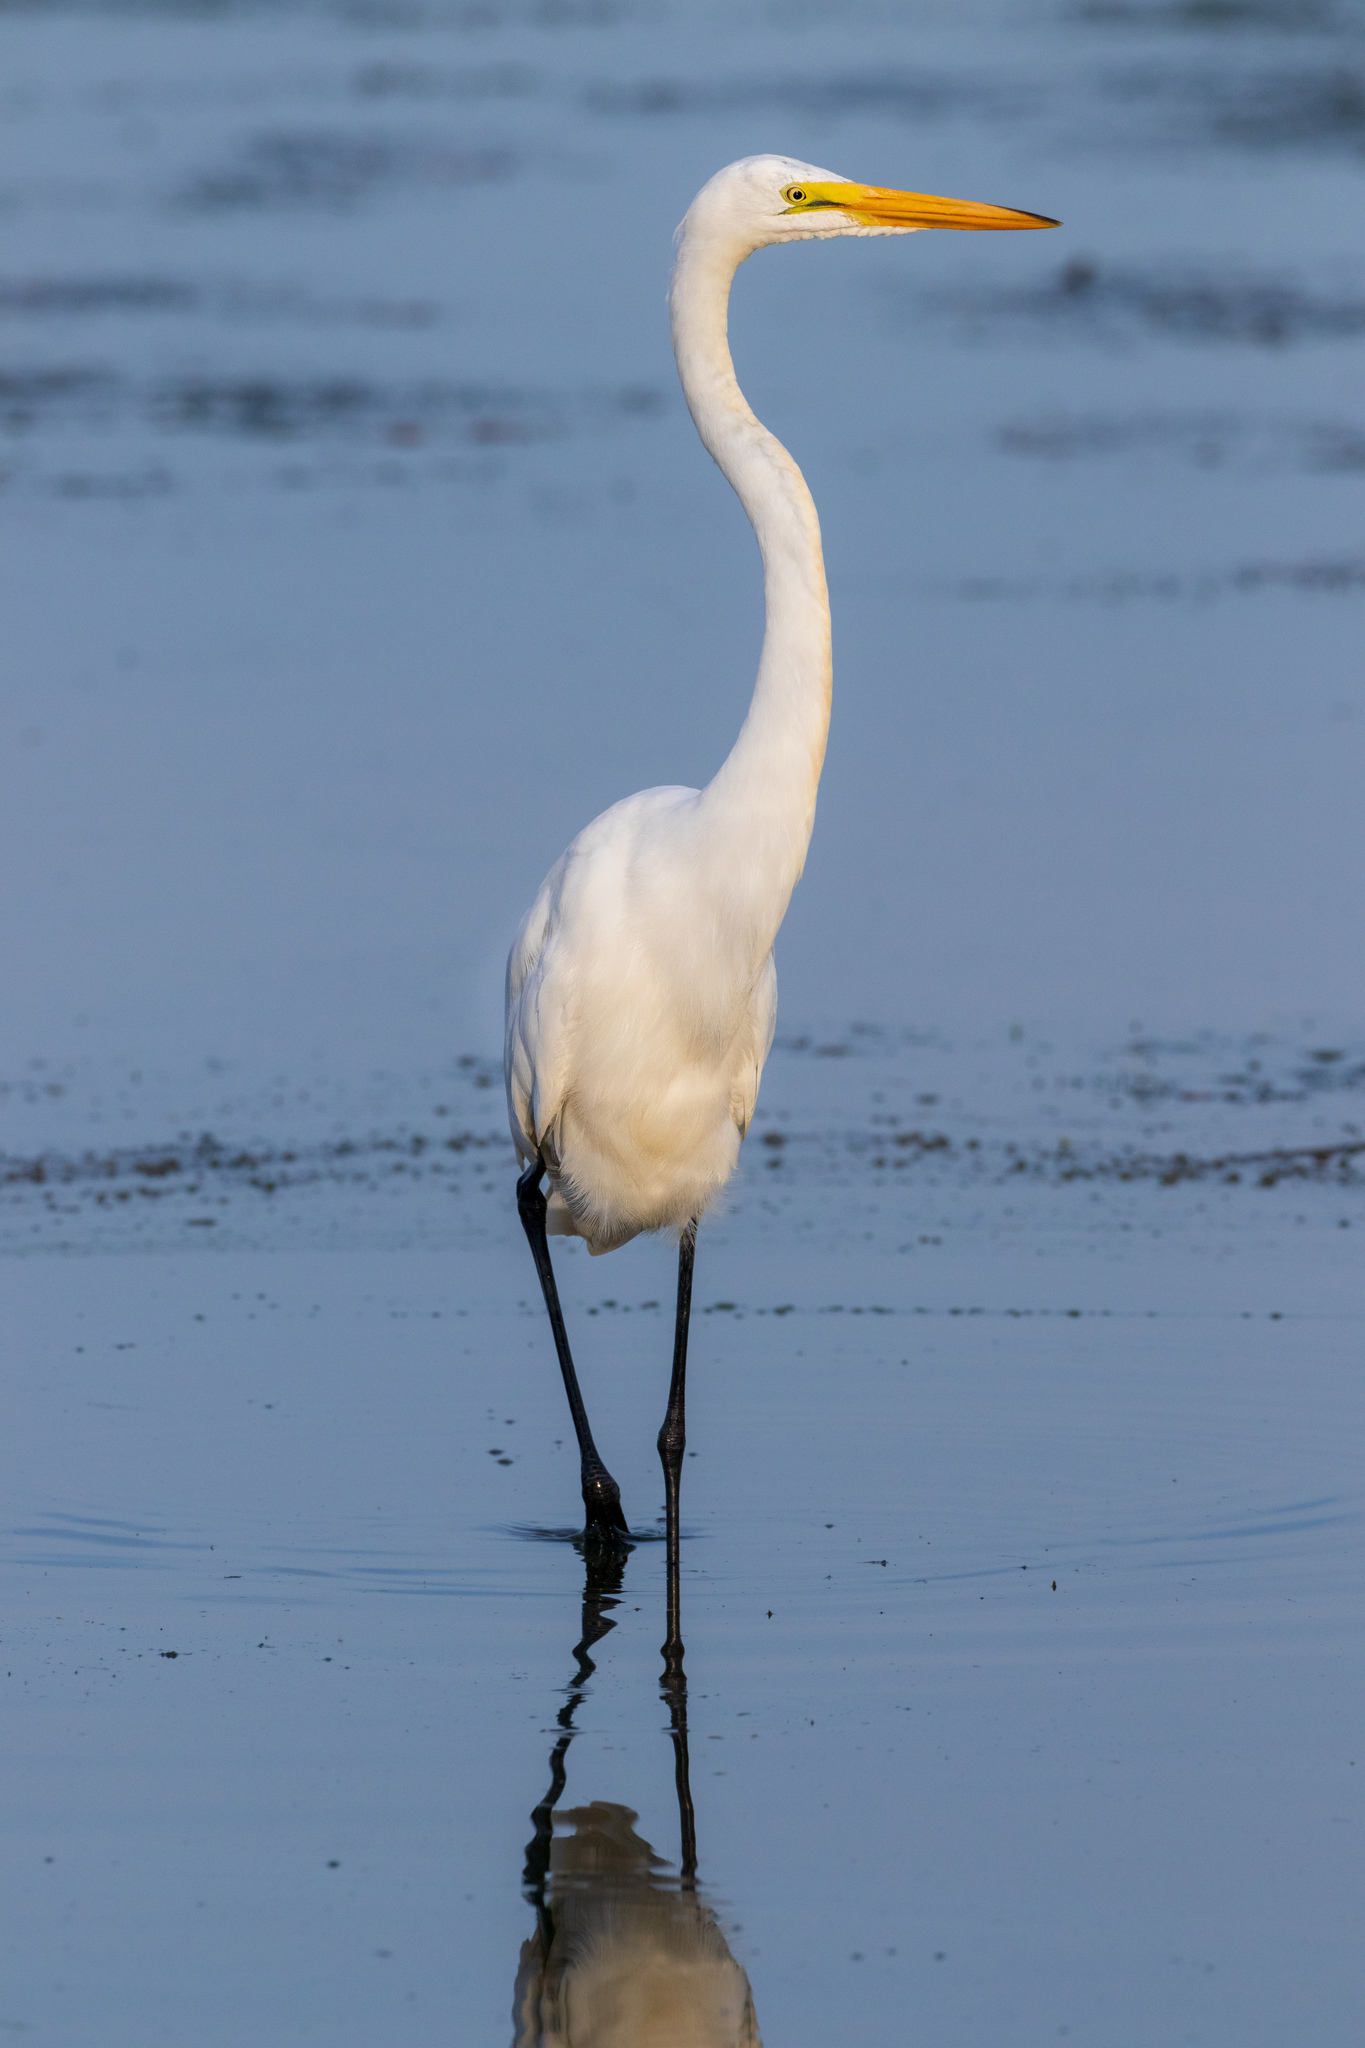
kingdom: Animalia
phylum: Chordata
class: Aves
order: Pelecaniformes
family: Ardeidae
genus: Ardea
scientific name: Ardea alba
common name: Great egret
